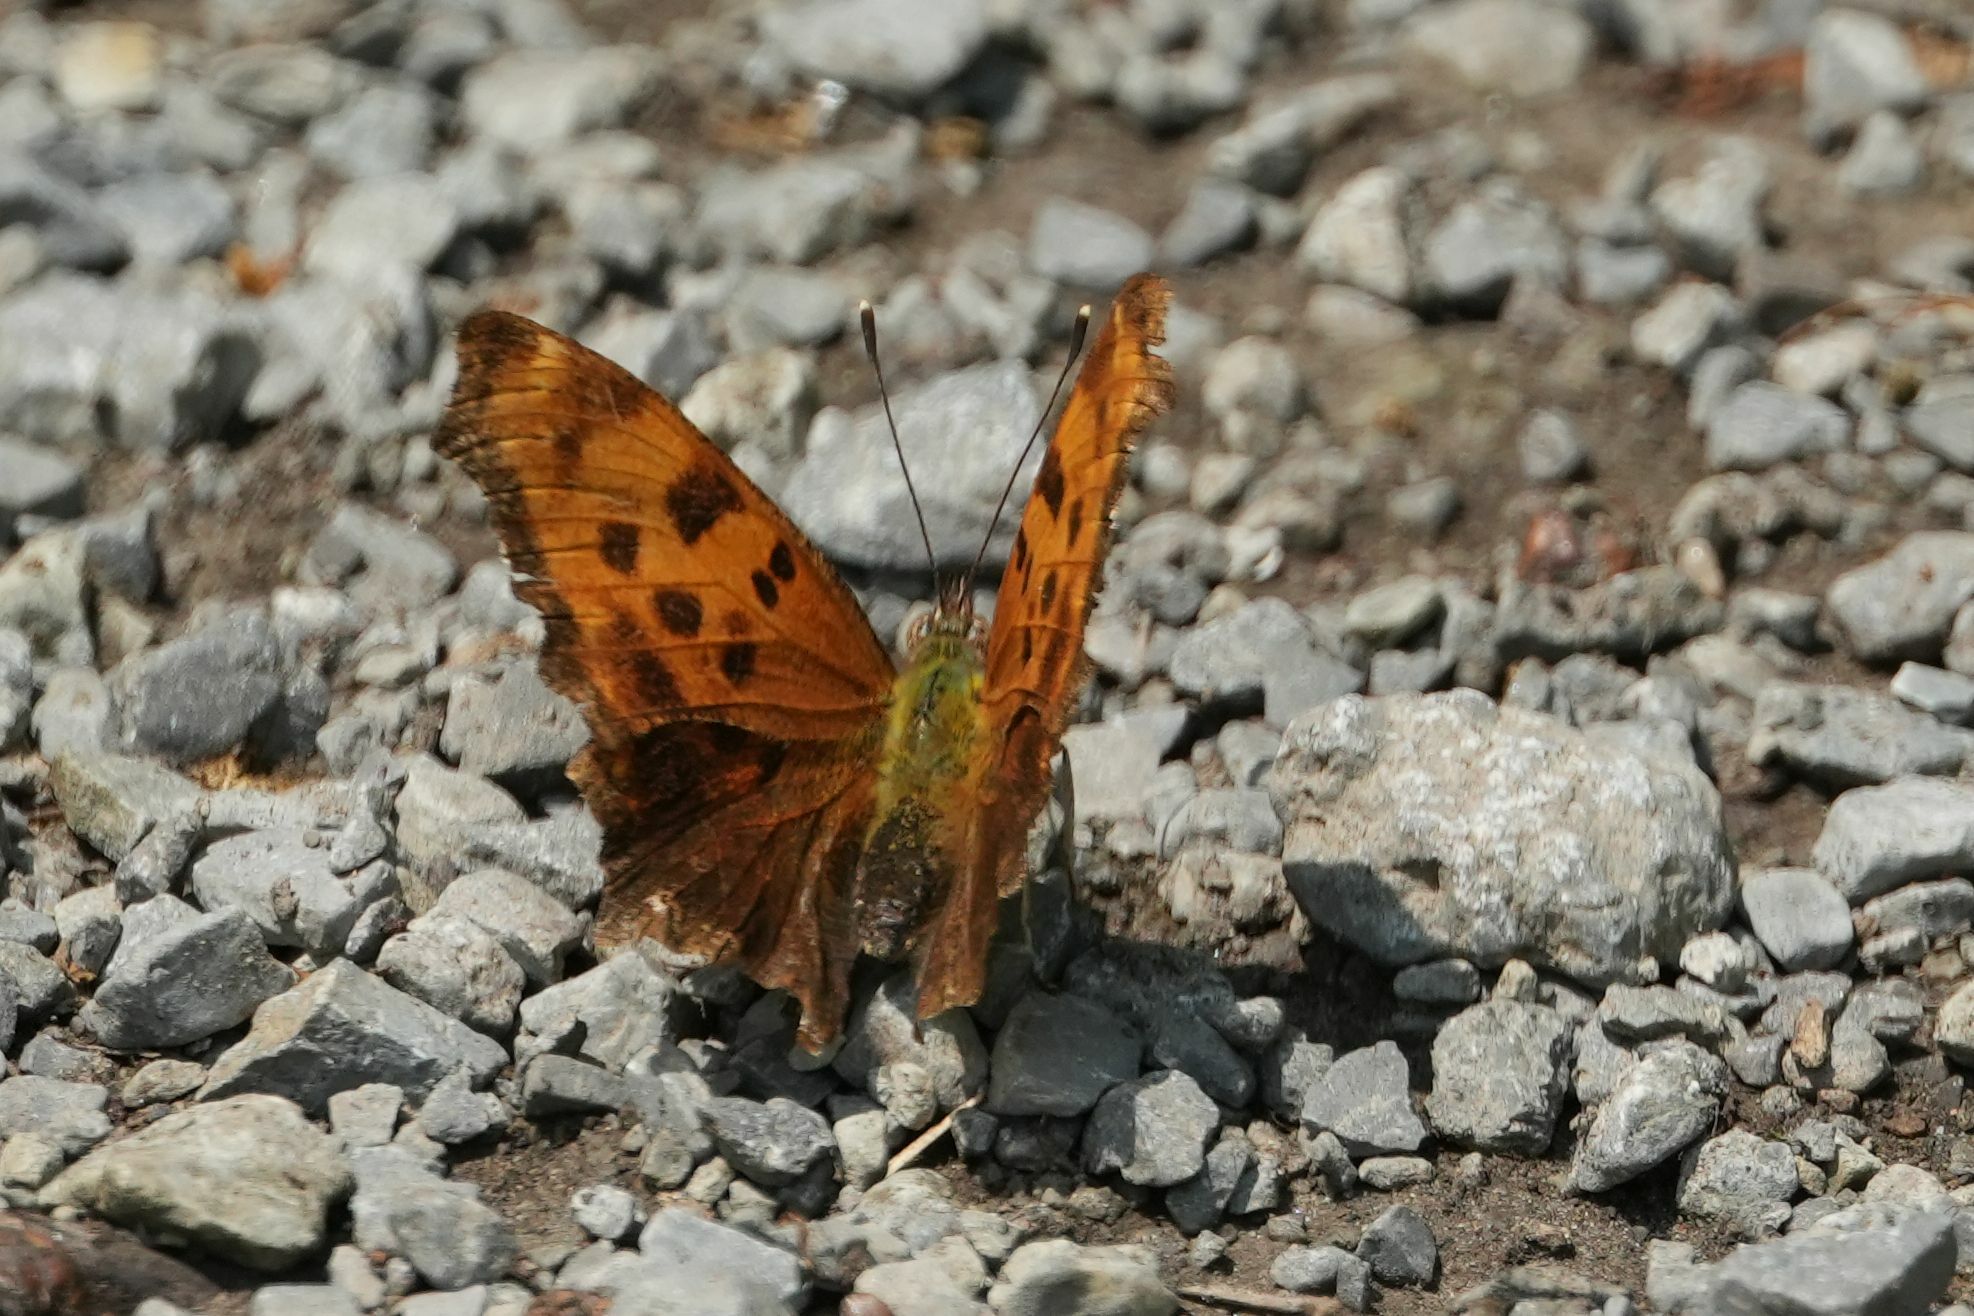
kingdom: Animalia
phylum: Arthropoda
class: Insecta
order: Lepidoptera
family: Nymphalidae
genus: Polygonia
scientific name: Polygonia comma
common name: Eastern comma
